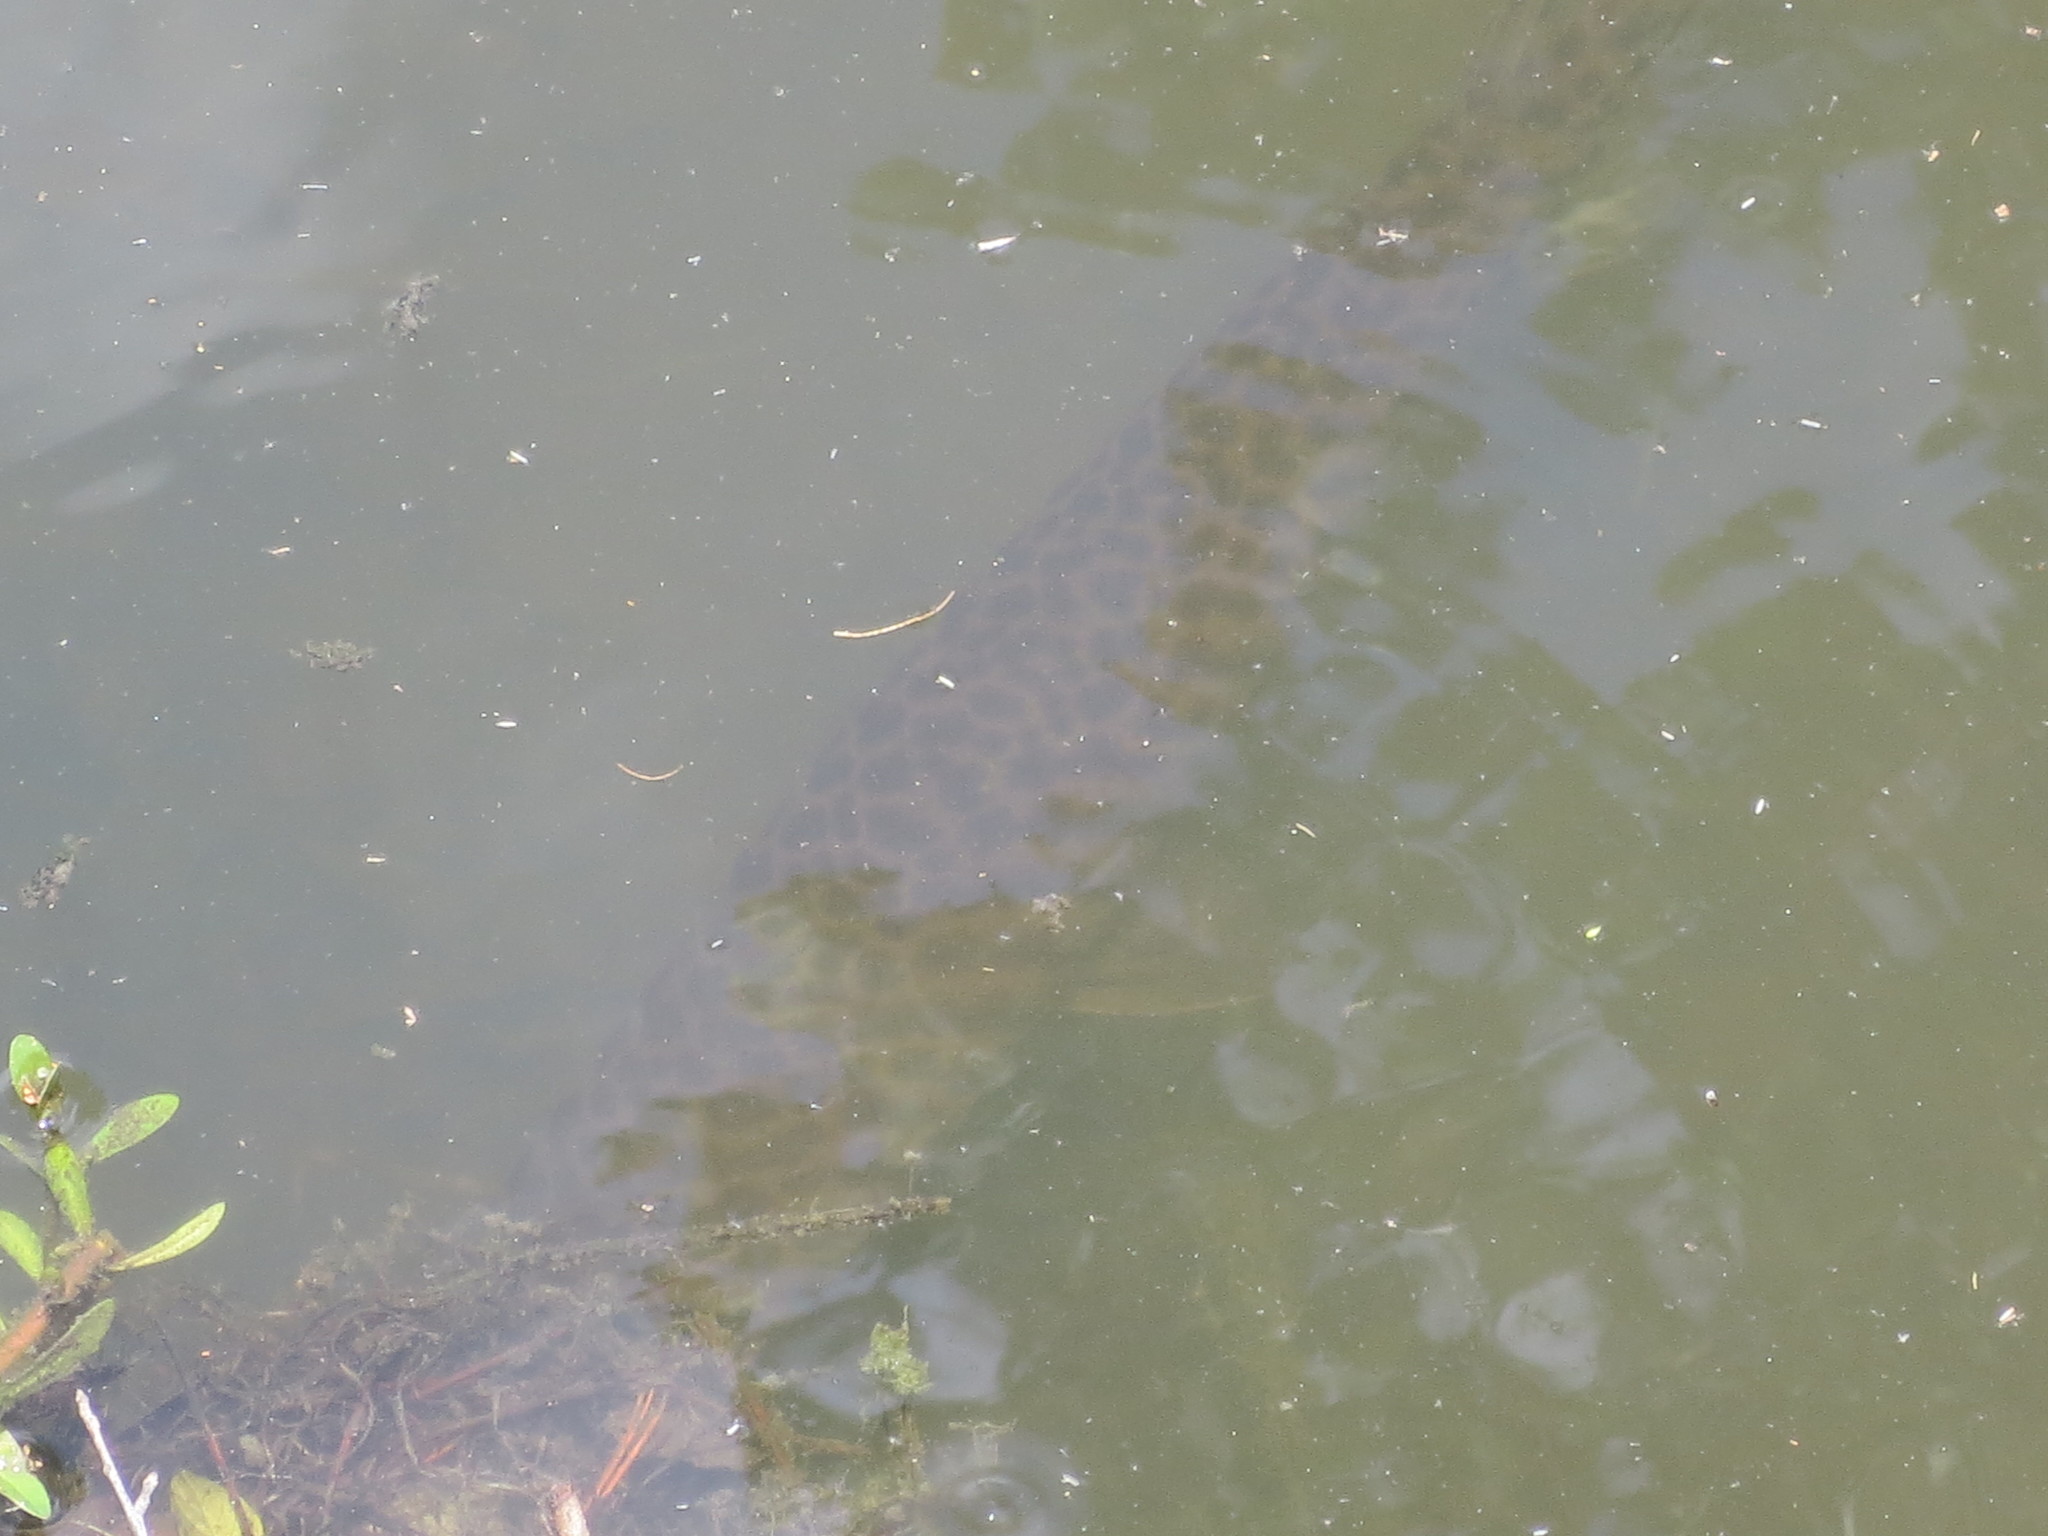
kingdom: Animalia
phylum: Chordata
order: Lepisosteiformes
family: Lepisosteidae
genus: Lepisosteus
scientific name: Lepisosteus platyrhincus
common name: Florida gar
